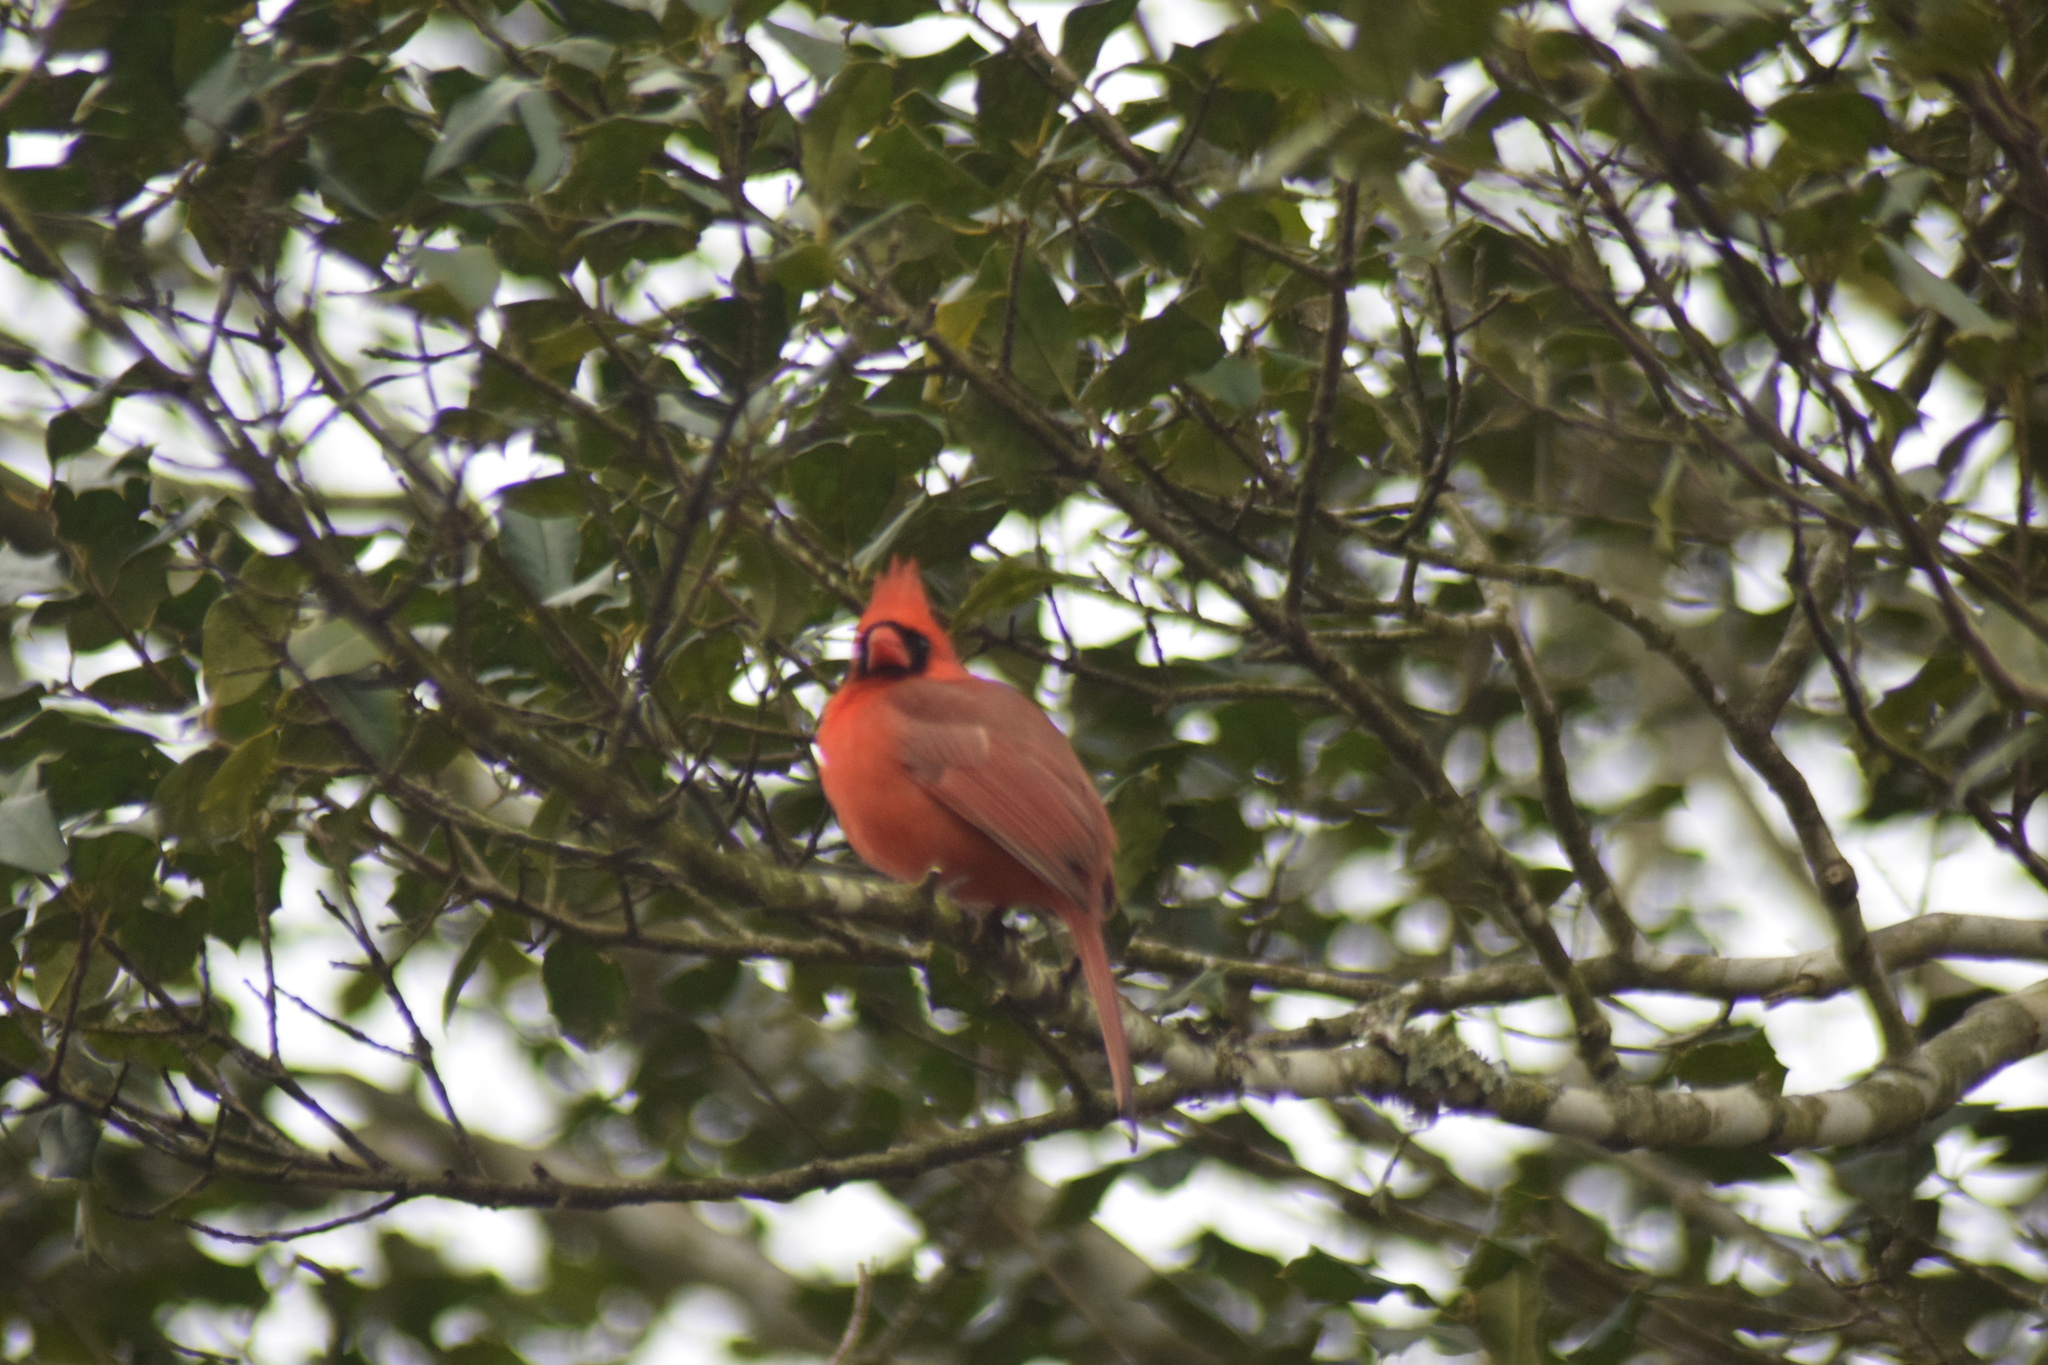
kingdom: Animalia
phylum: Chordata
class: Aves
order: Passeriformes
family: Cardinalidae
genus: Cardinalis
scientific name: Cardinalis cardinalis
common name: Northern cardinal
